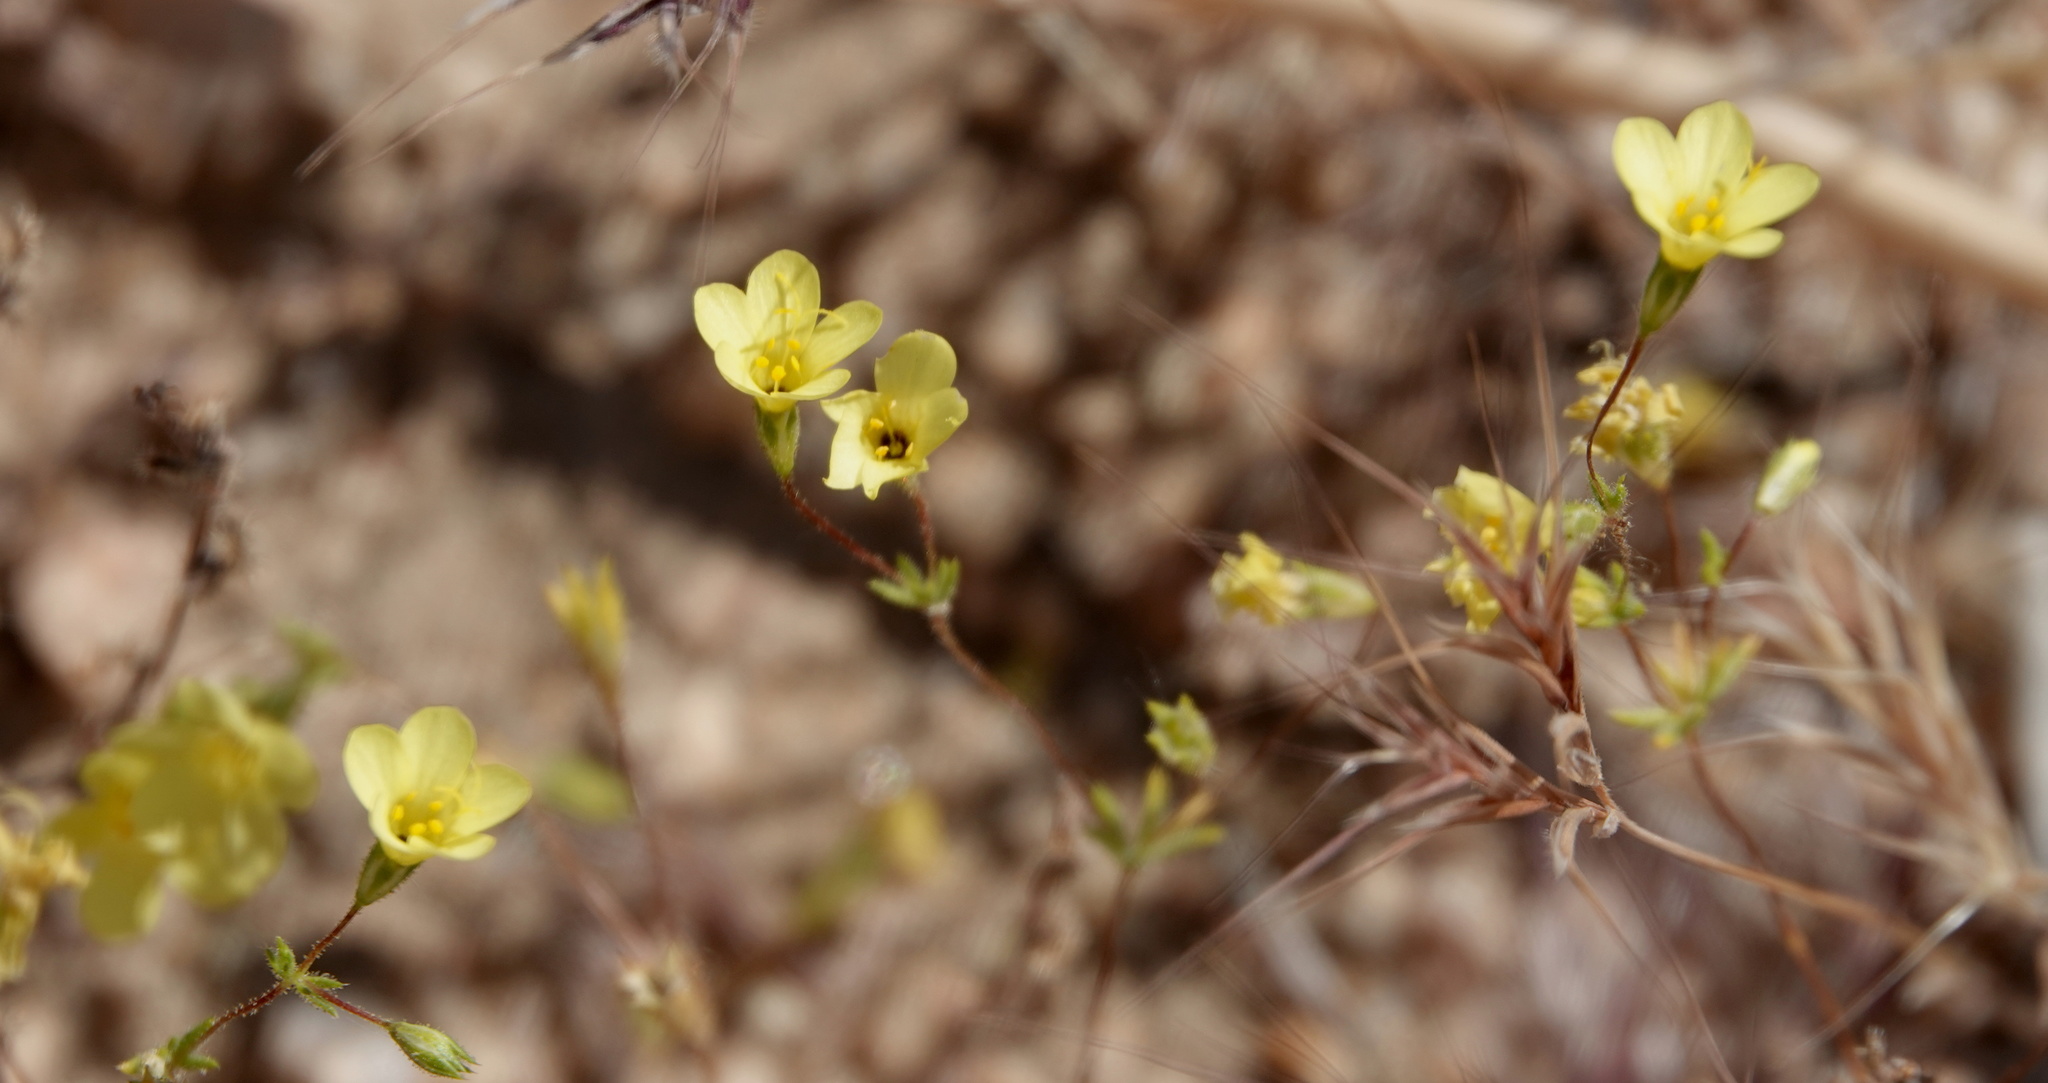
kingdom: Plantae
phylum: Tracheophyta
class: Magnoliopsida
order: Ericales
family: Polemoniaceae
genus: Leptosiphon
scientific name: Leptosiphon chrysanthus
